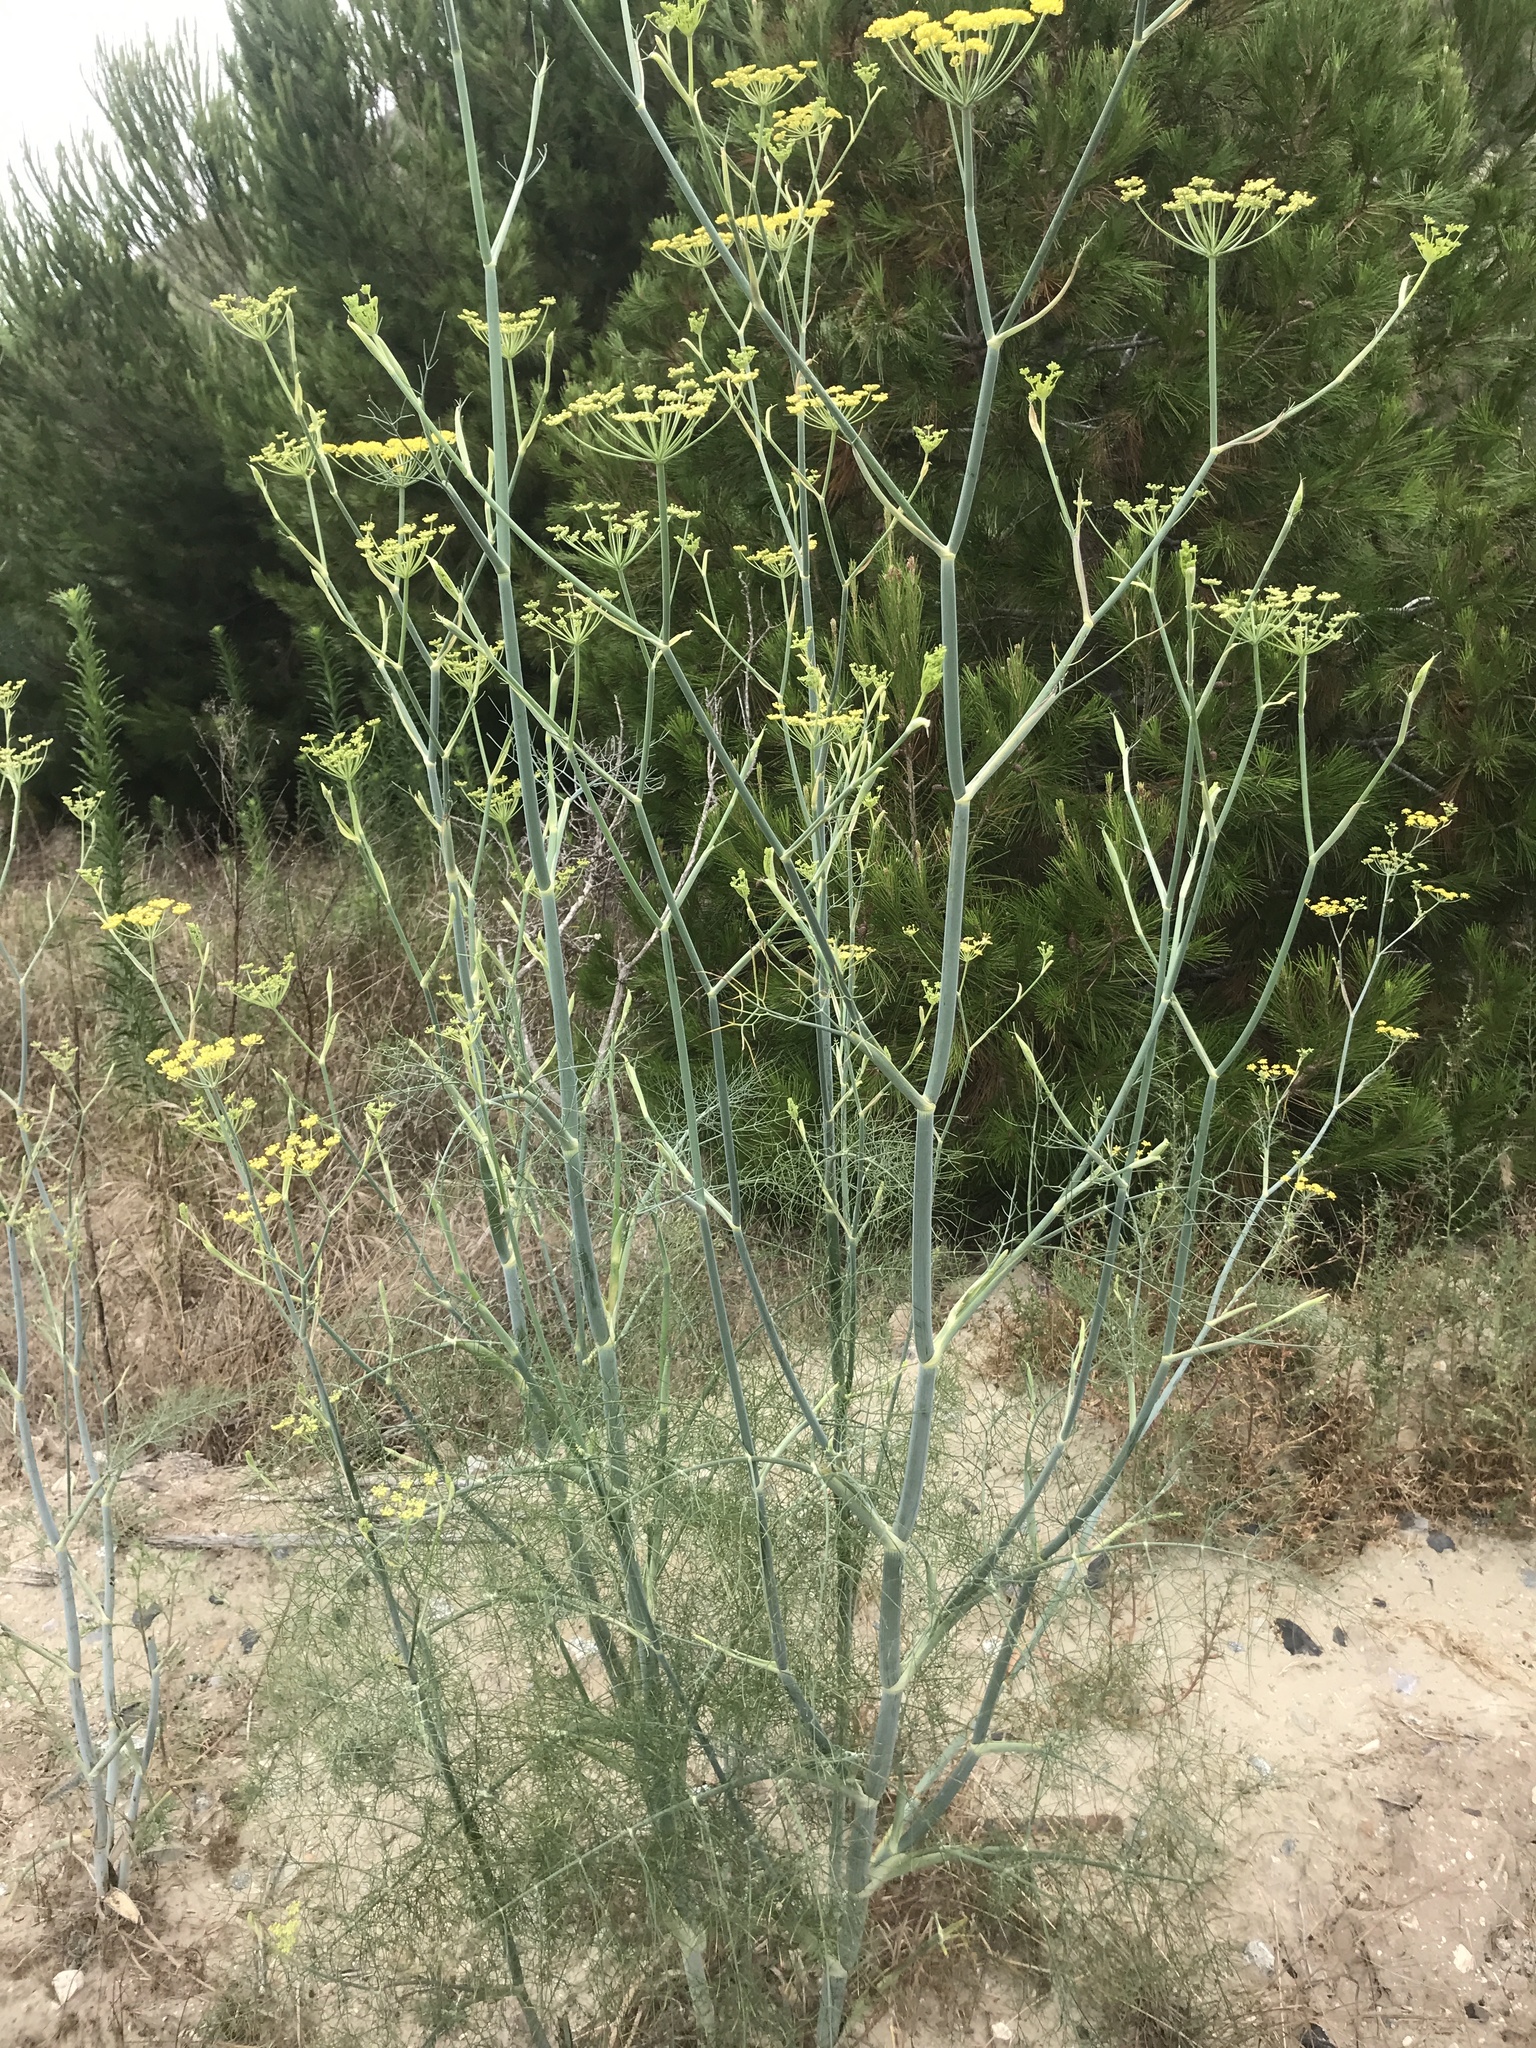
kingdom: Plantae
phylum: Tracheophyta
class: Magnoliopsida
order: Apiales
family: Apiaceae
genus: Foeniculum
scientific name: Foeniculum vulgare
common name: Fennel
